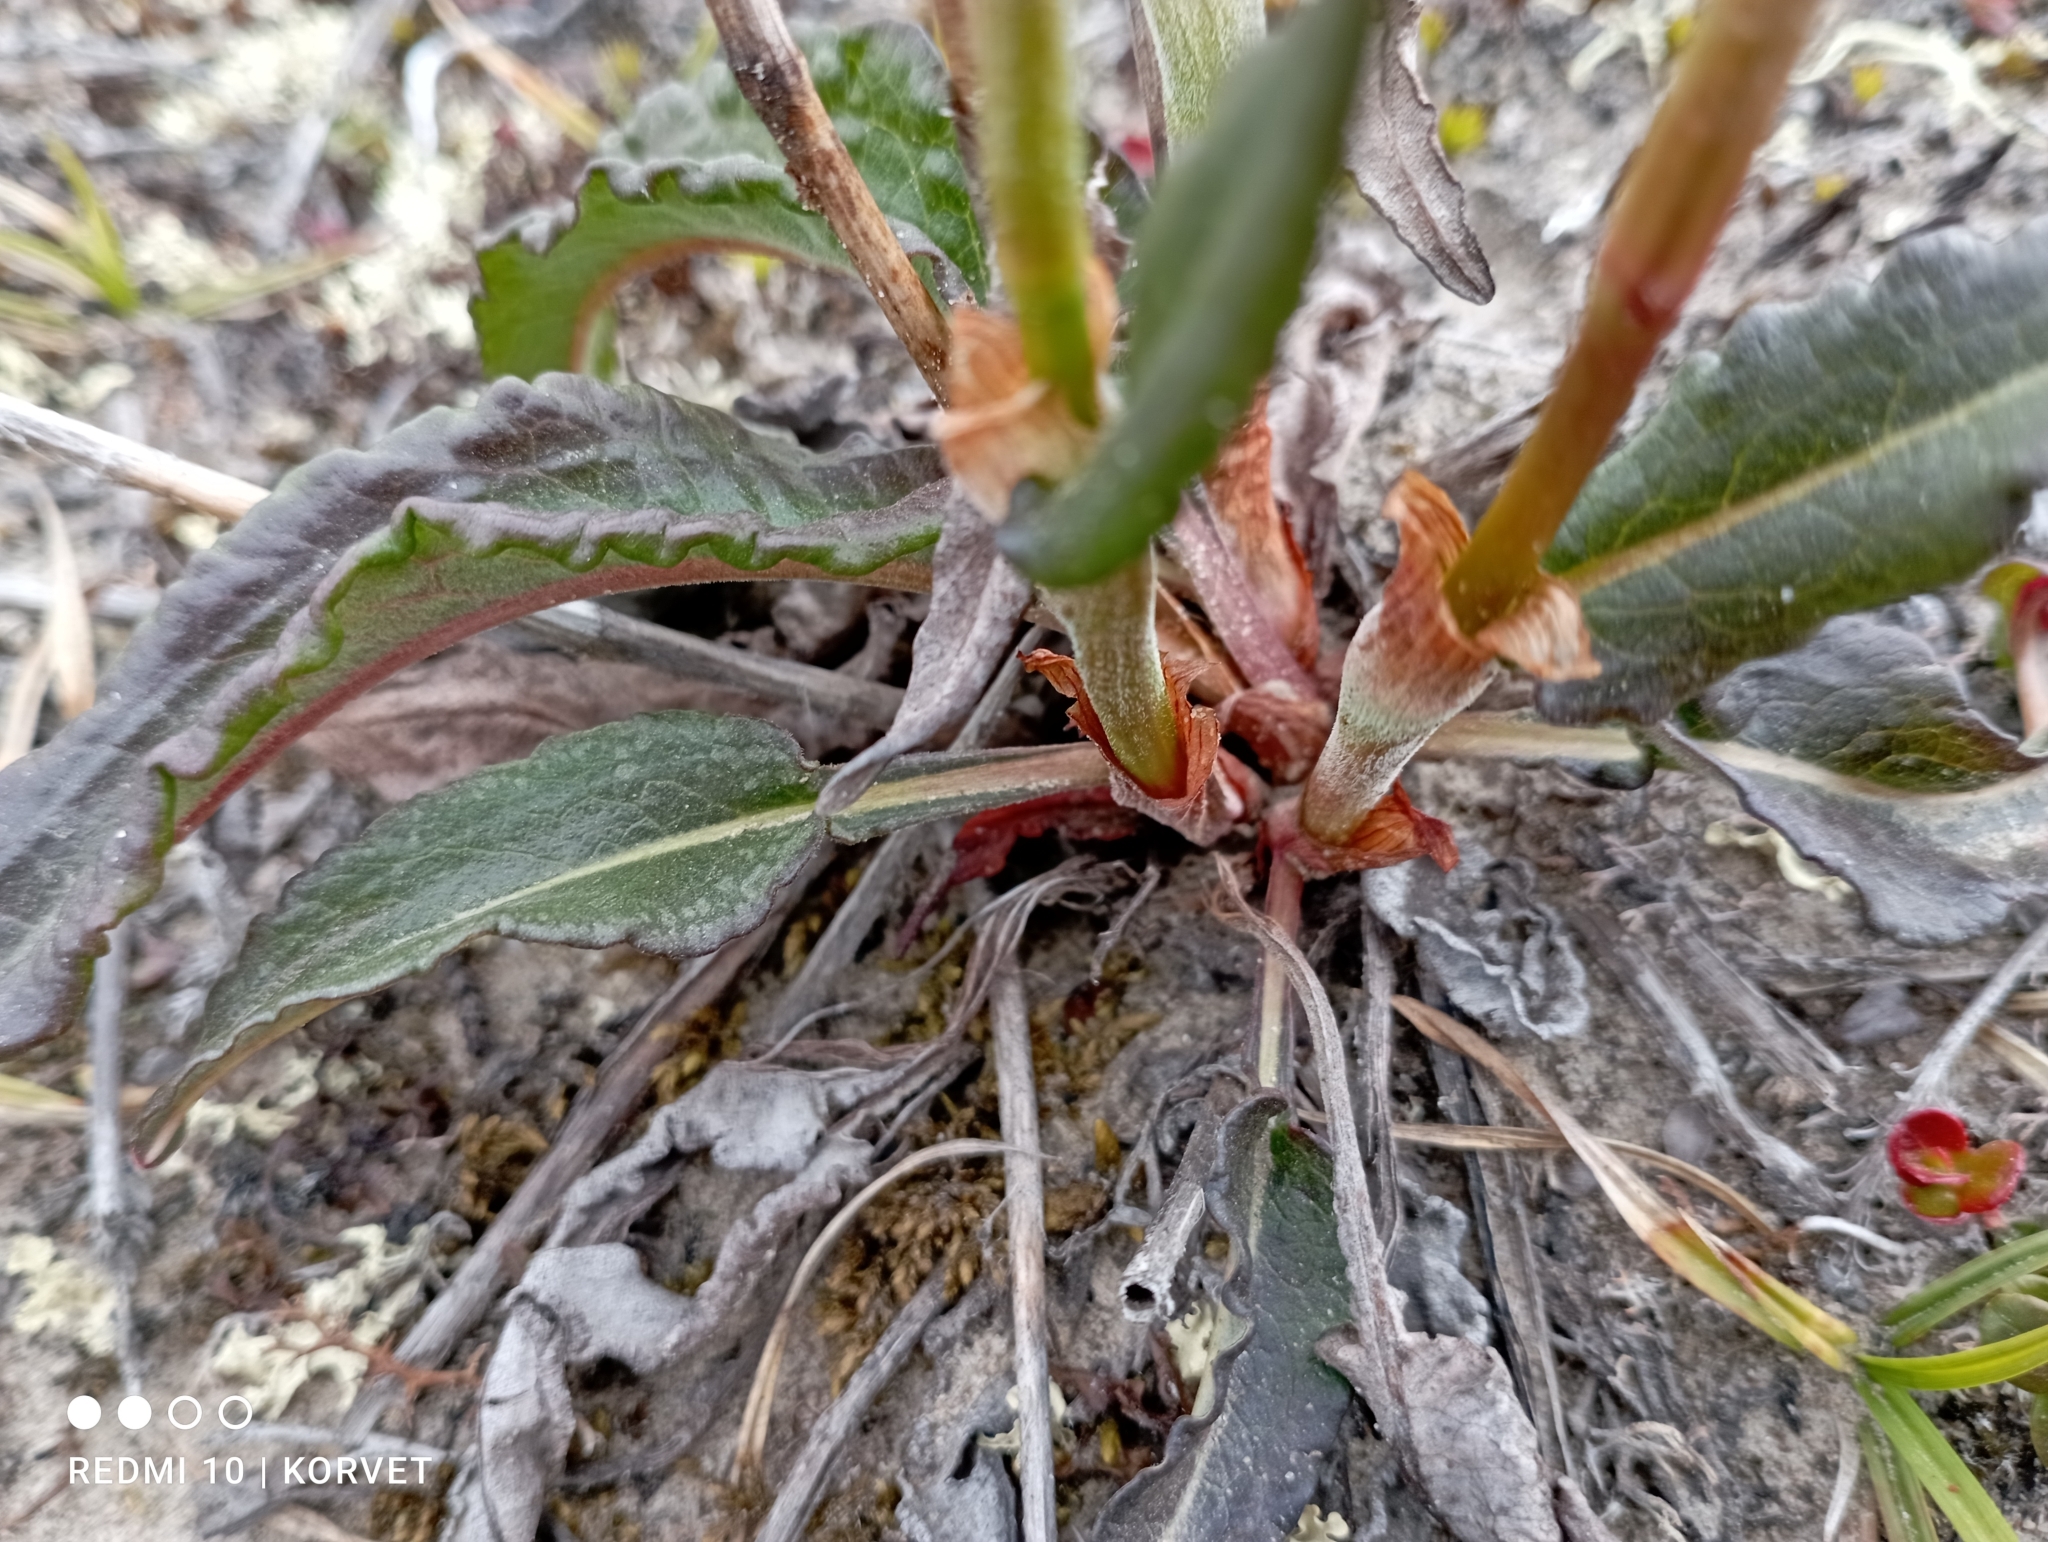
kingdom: Plantae
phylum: Tracheophyta
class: Magnoliopsida
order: Caryophyllales
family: Polygonaceae
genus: Bistorta
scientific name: Bistorta officinalis
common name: Common bistort
